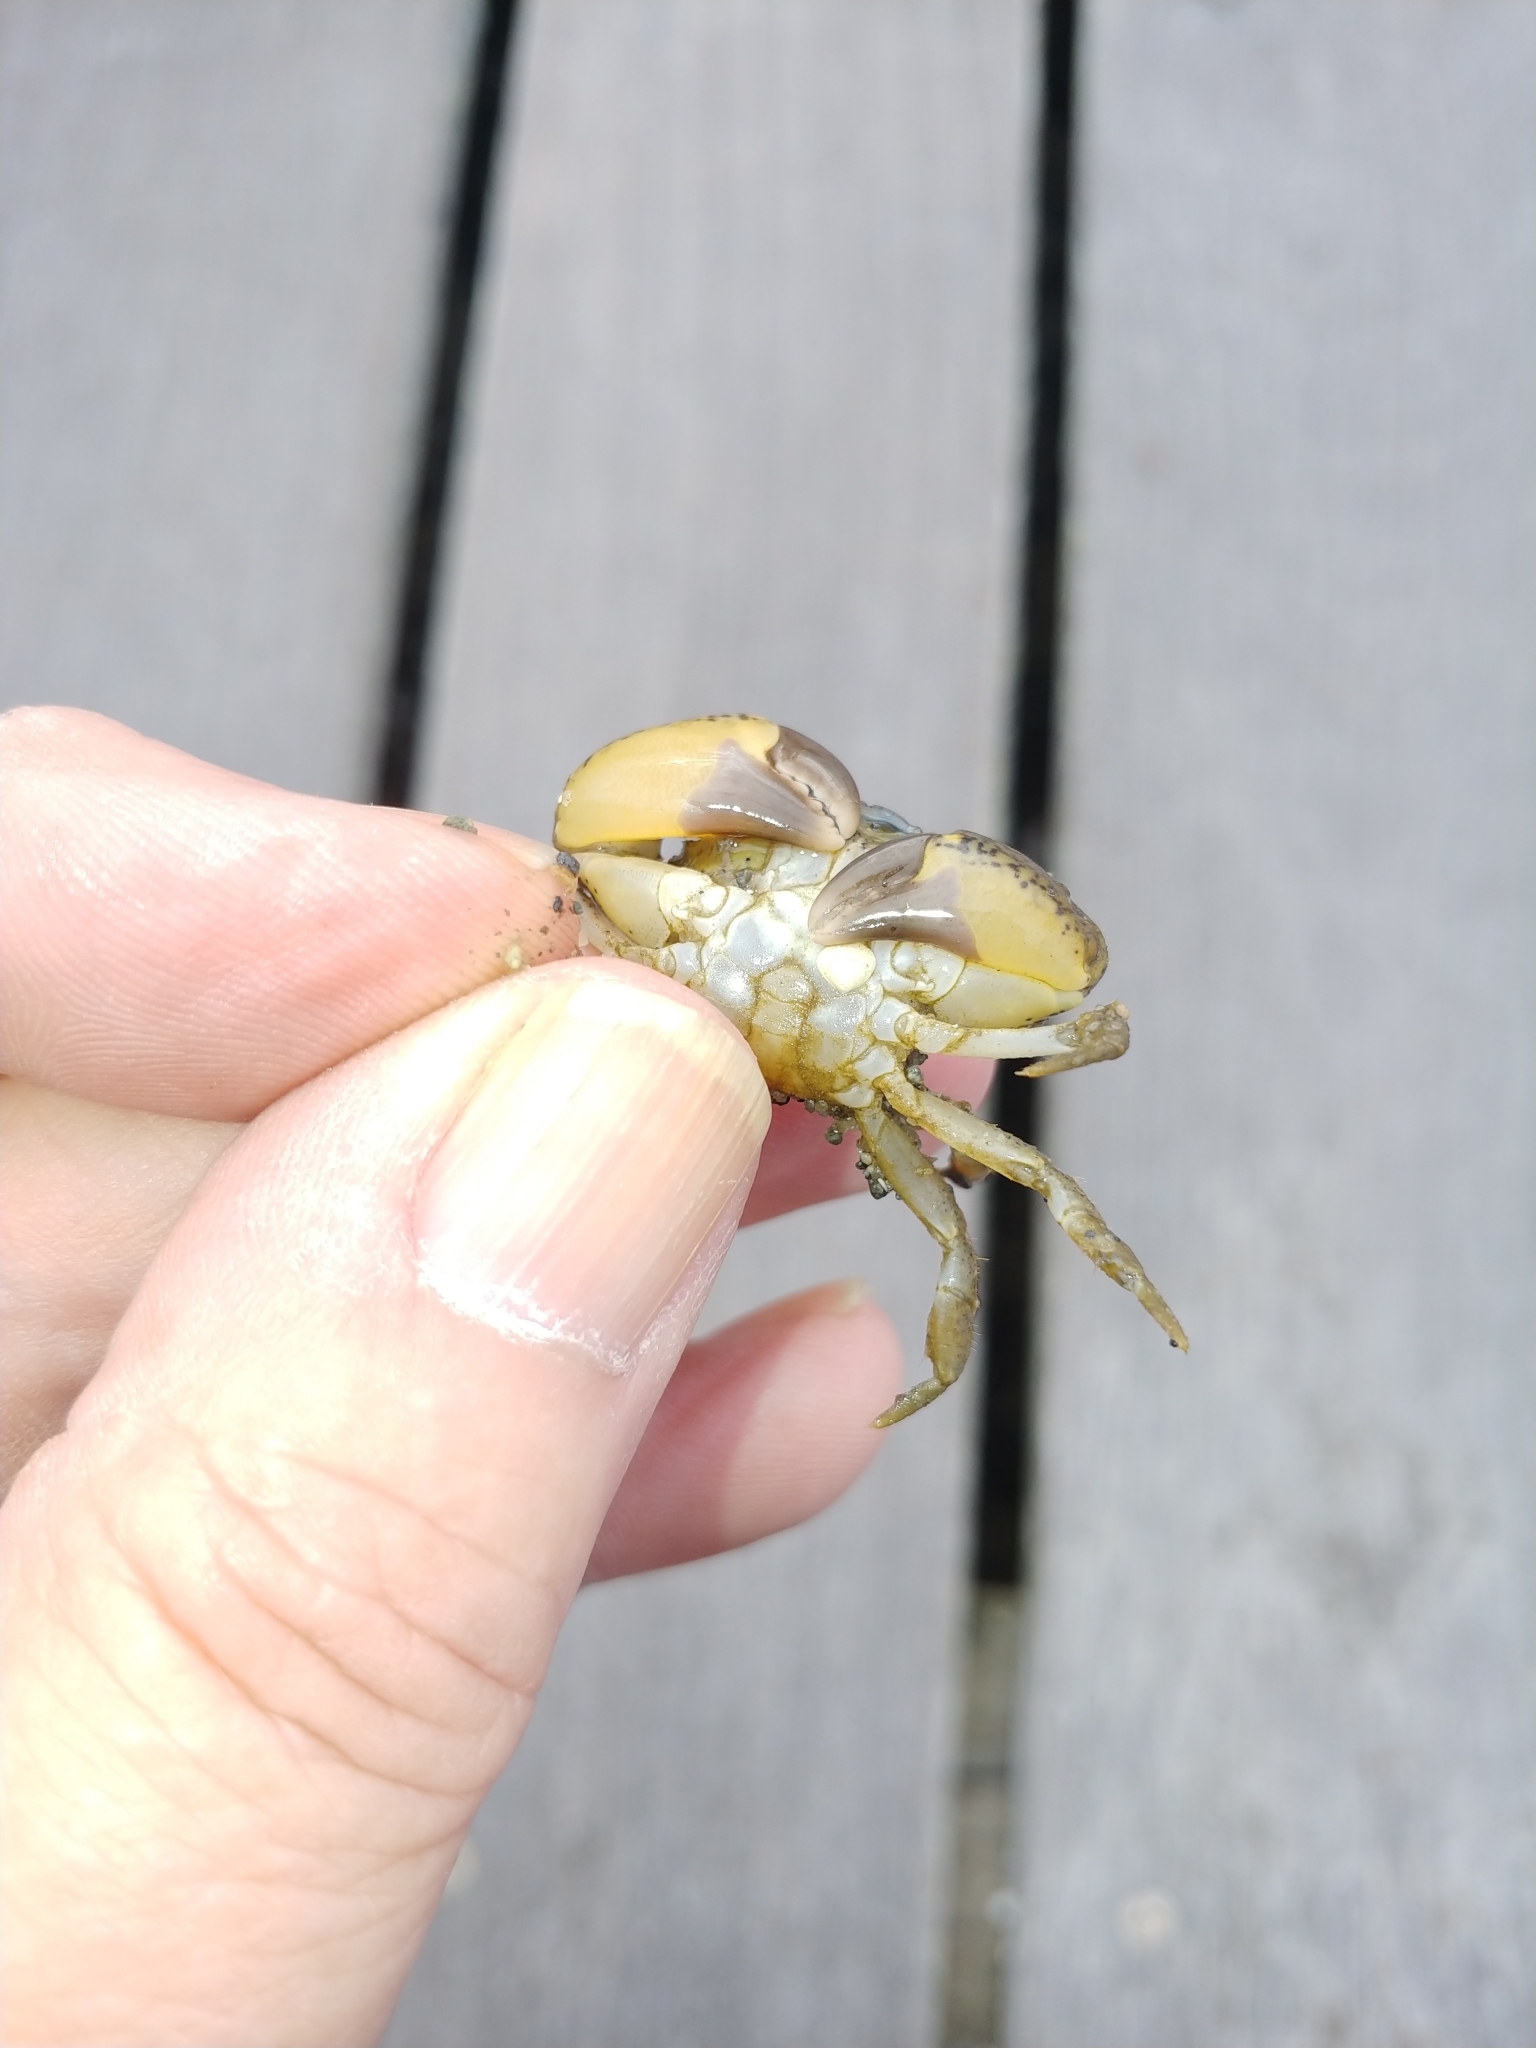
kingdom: Animalia
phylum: Arthropoda
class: Malacostraca
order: Decapoda
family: Panopeidae
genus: Dyspanopeus
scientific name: Dyspanopeus sayi
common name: Say mud crab
